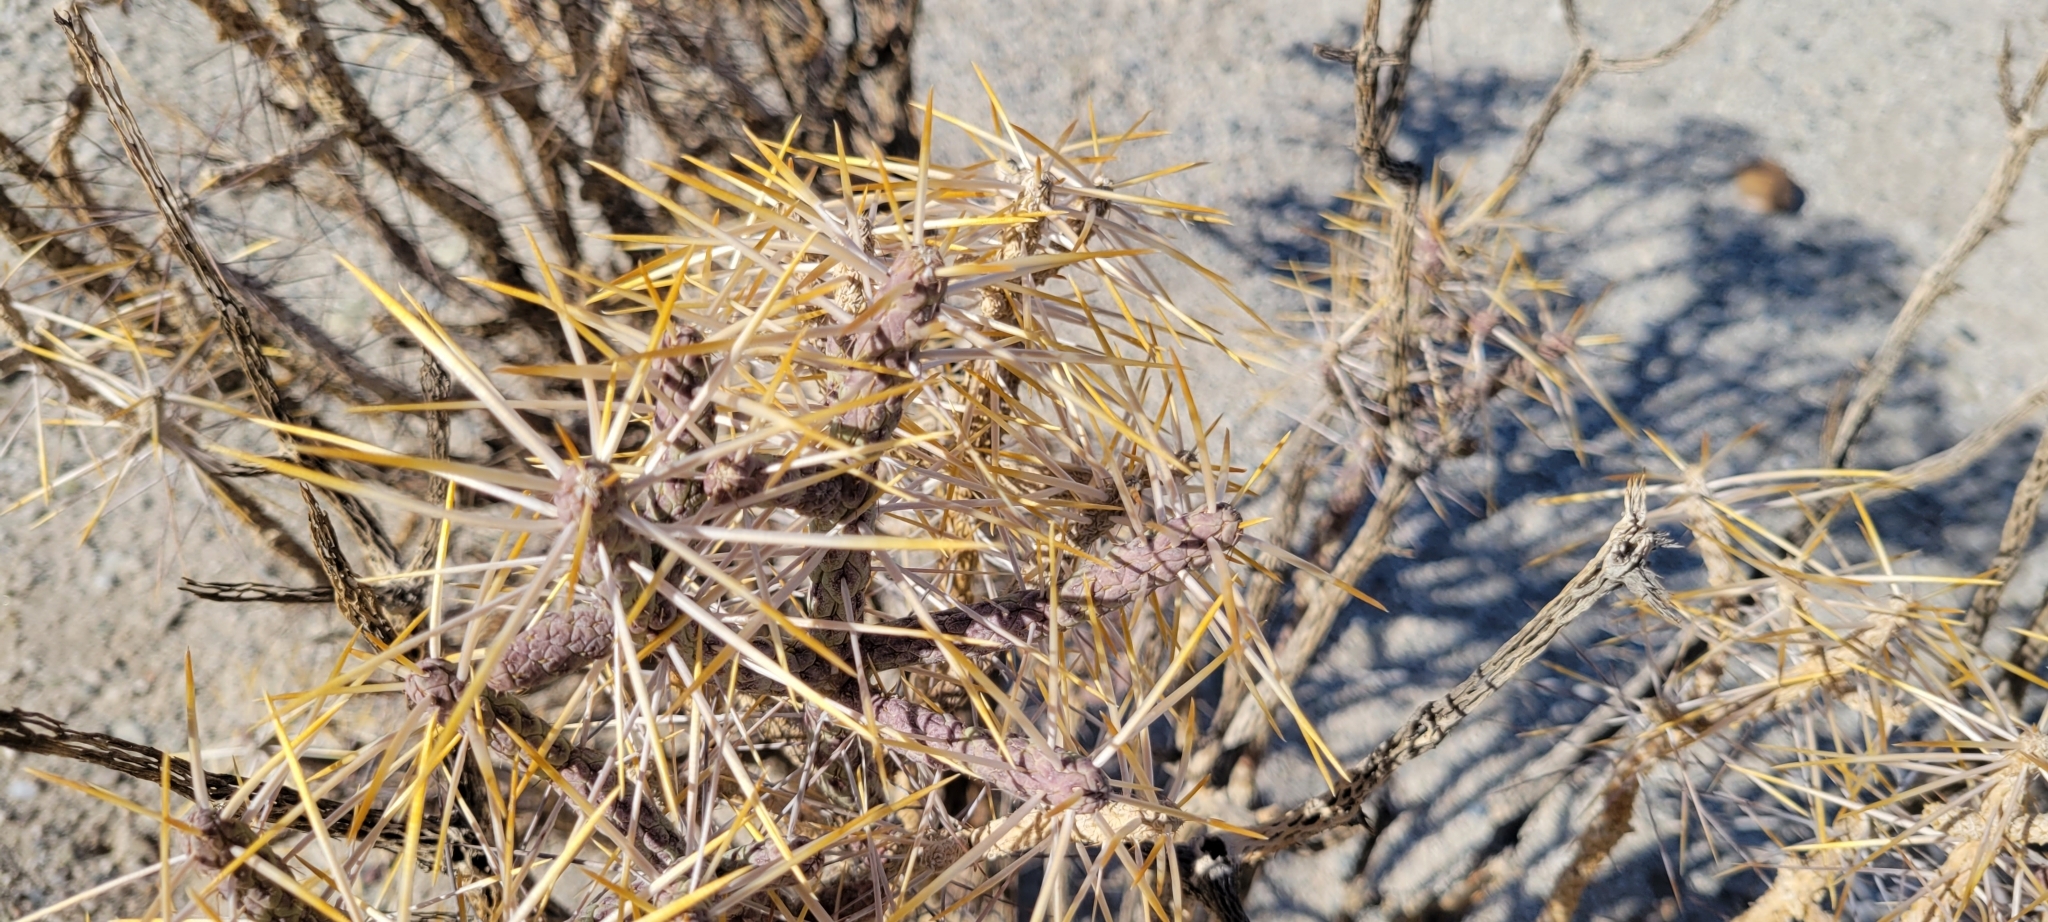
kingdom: Plantae
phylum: Tracheophyta
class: Magnoliopsida
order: Caryophyllales
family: Cactaceae
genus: Cylindropuntia
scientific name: Cylindropuntia ramosissima
